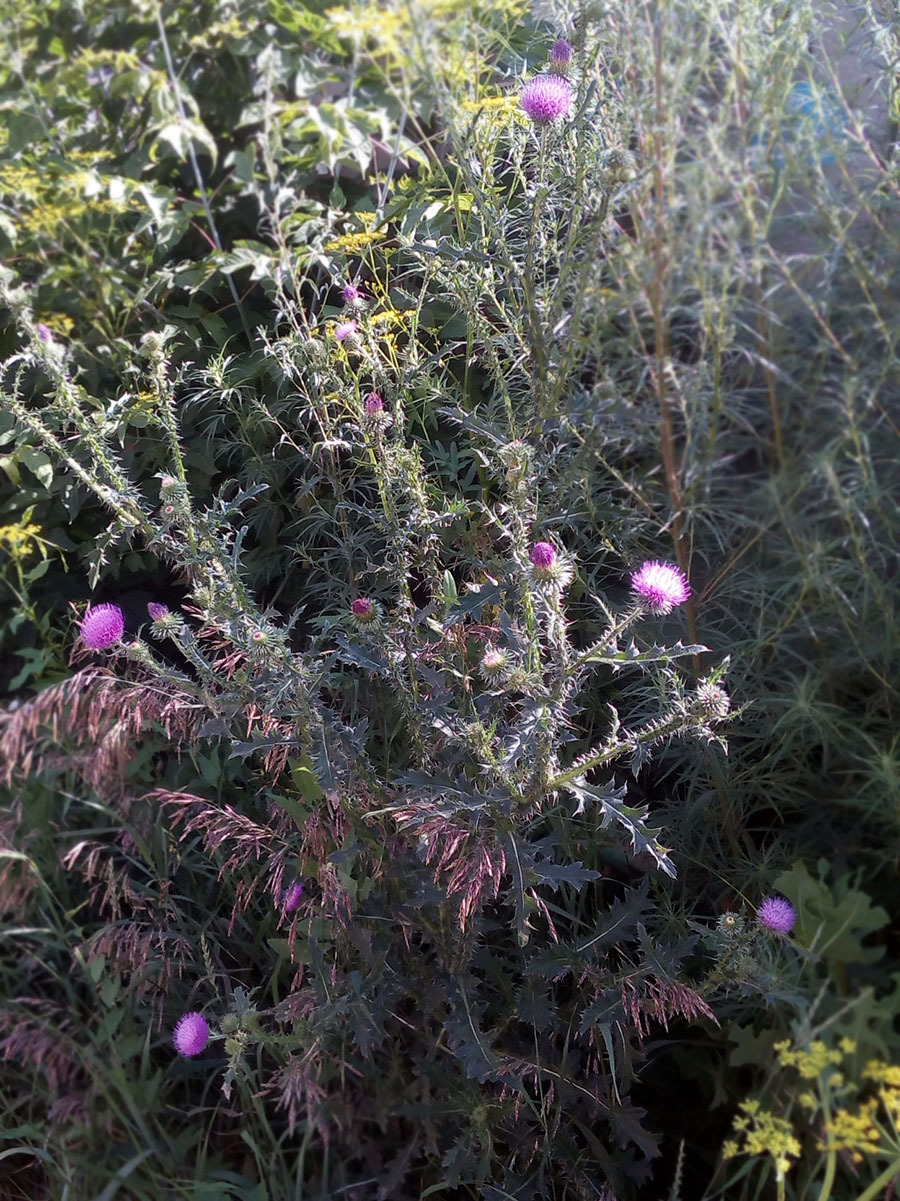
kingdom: Plantae
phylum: Tracheophyta
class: Magnoliopsida
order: Asterales
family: Asteraceae
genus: Carduus
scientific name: Carduus acanthoides
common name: Plumeless thistle
